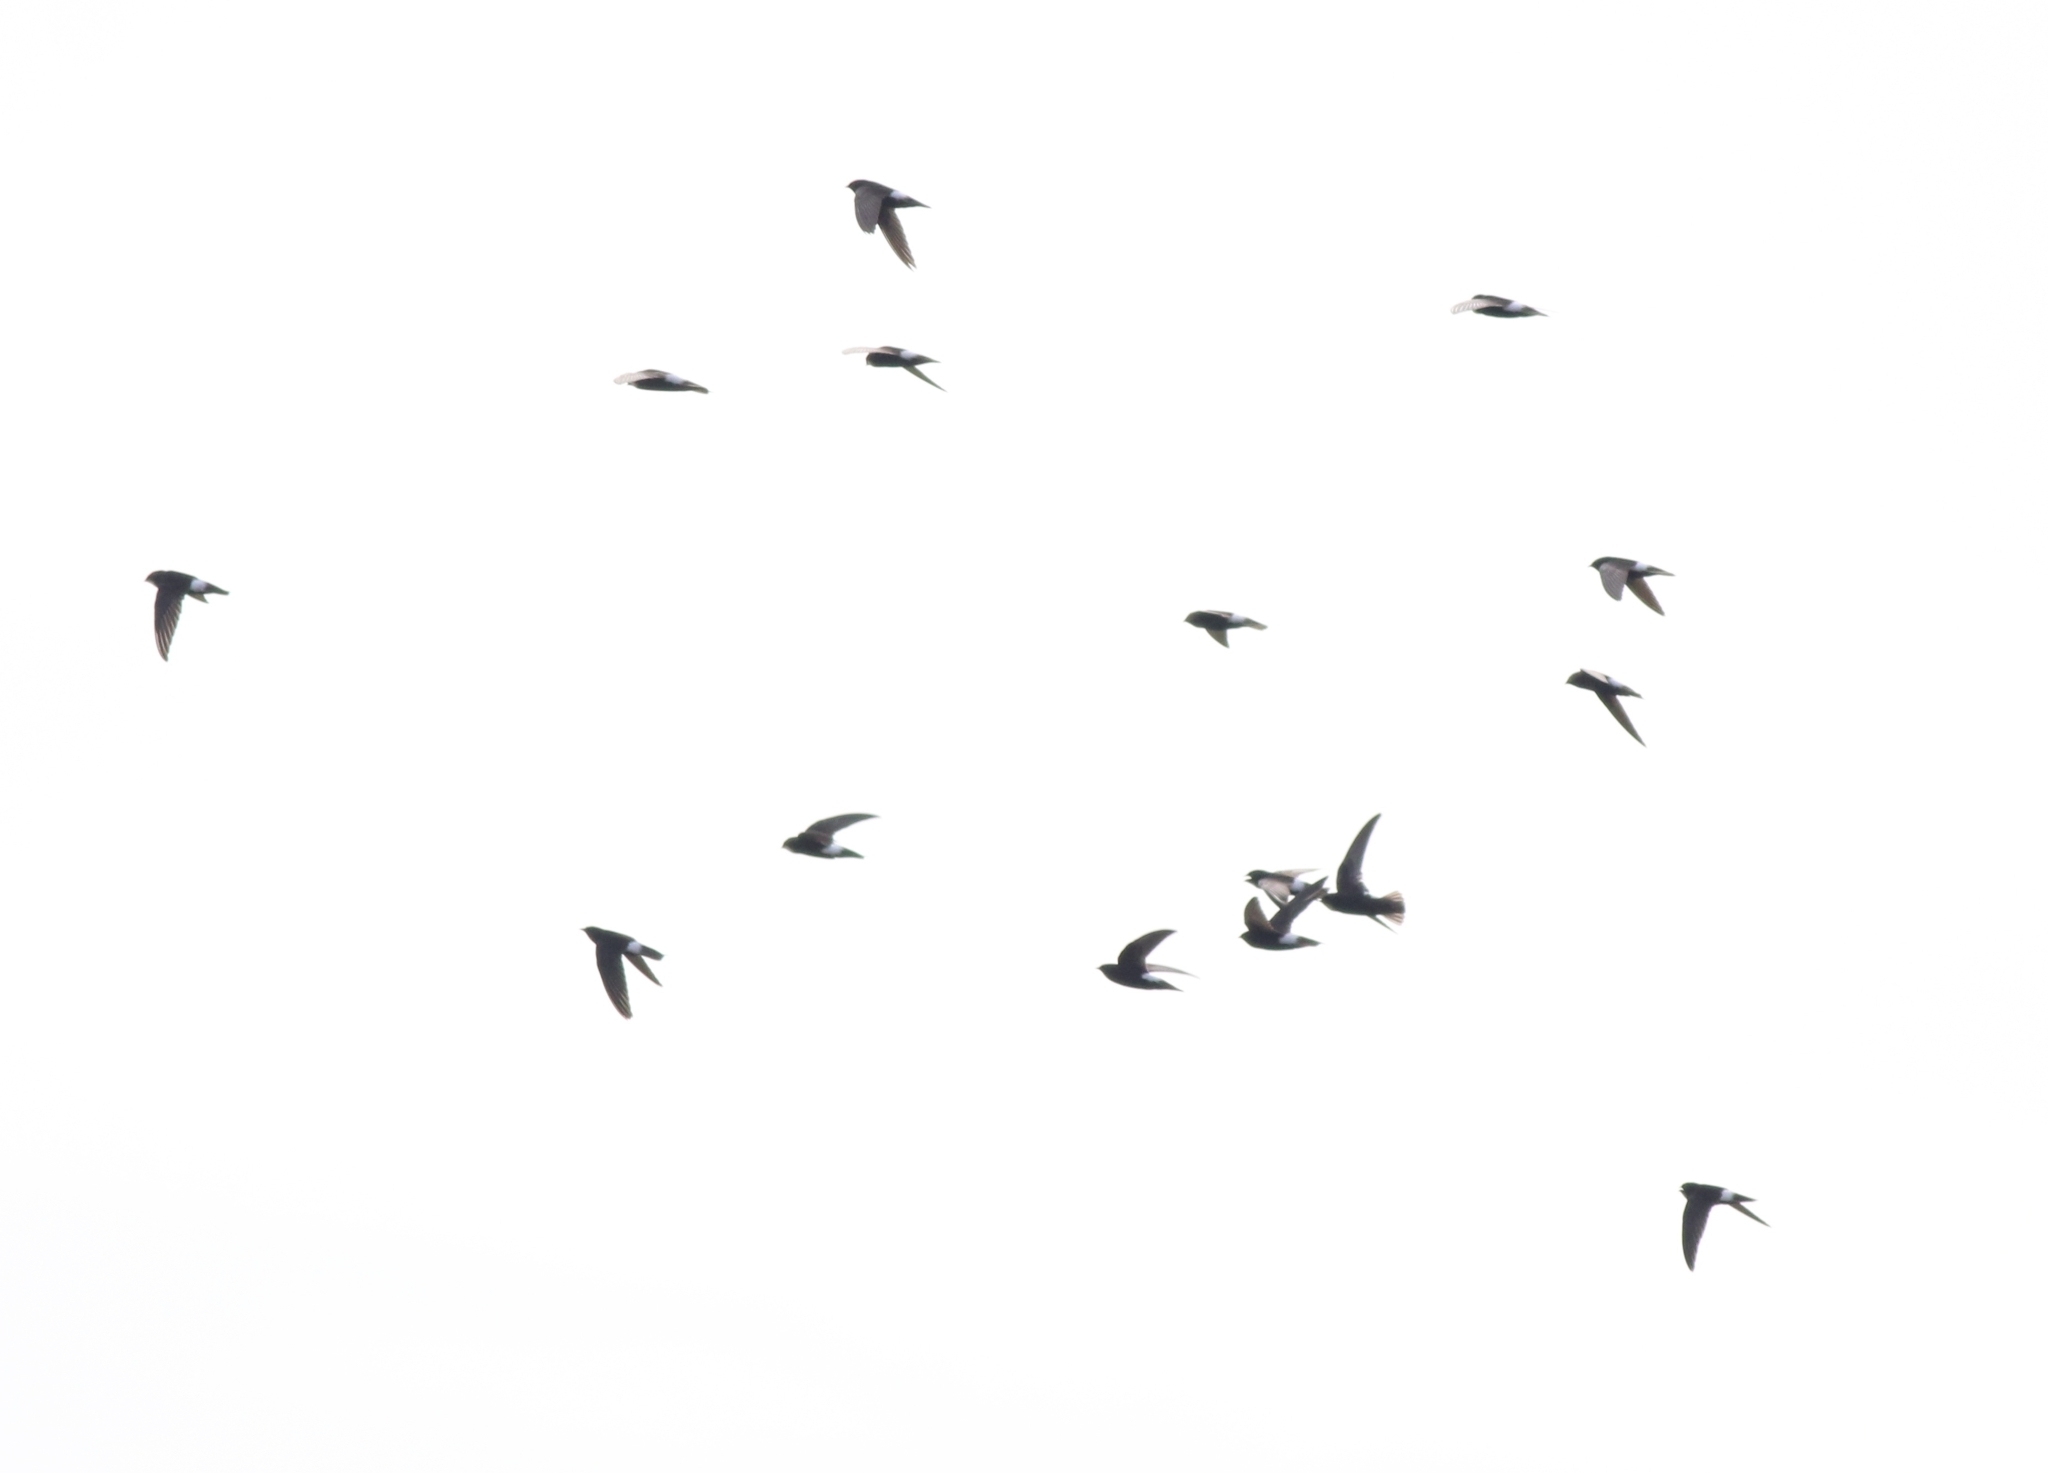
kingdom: Animalia
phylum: Chordata
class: Aves
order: Apodiformes
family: Apodidae
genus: Apus
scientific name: Apus affinis
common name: Little swift
